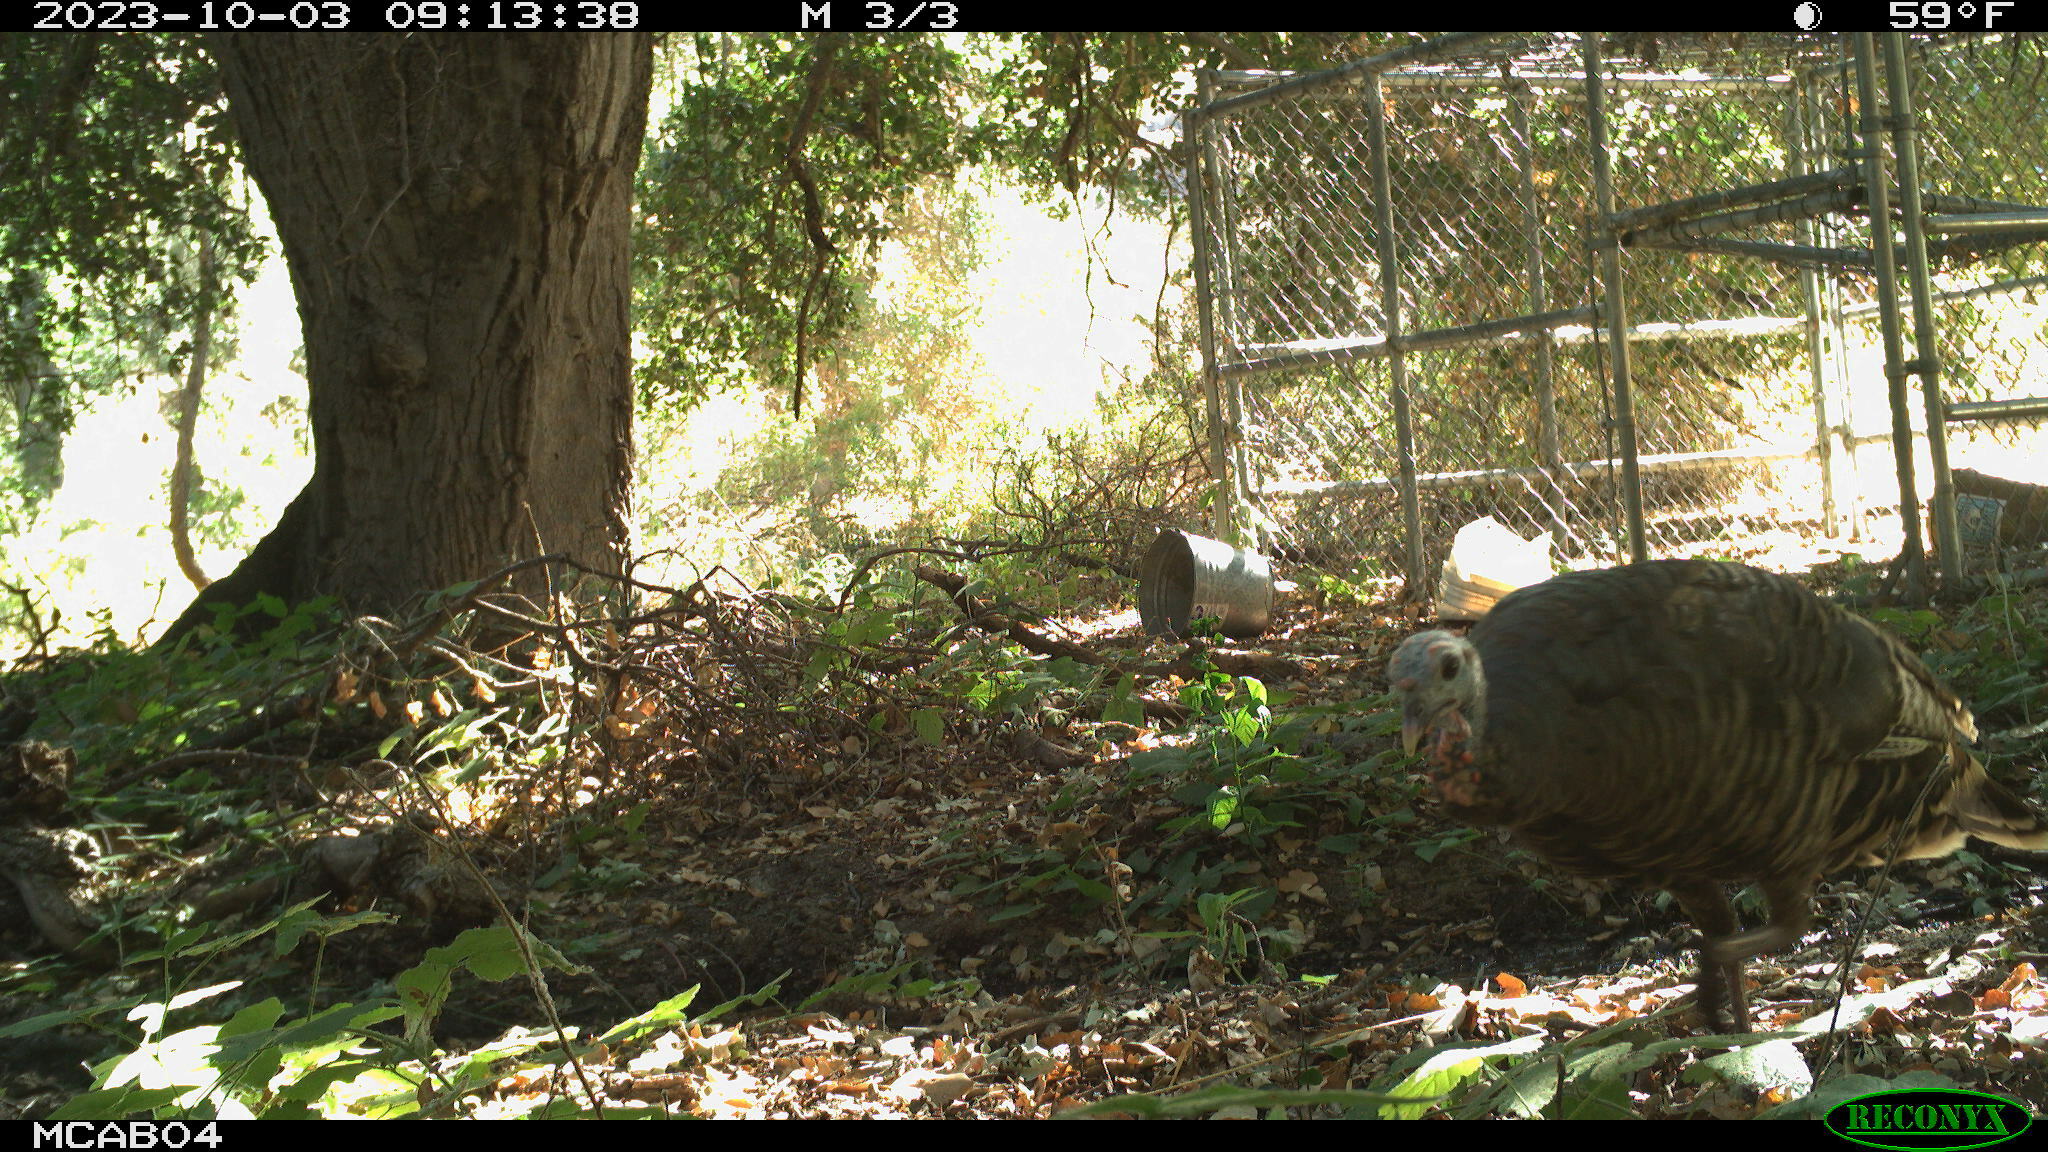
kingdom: Animalia
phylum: Chordata
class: Aves
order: Galliformes
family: Phasianidae
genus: Meleagris
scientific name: Meleagris gallopavo
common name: Wild turkey
